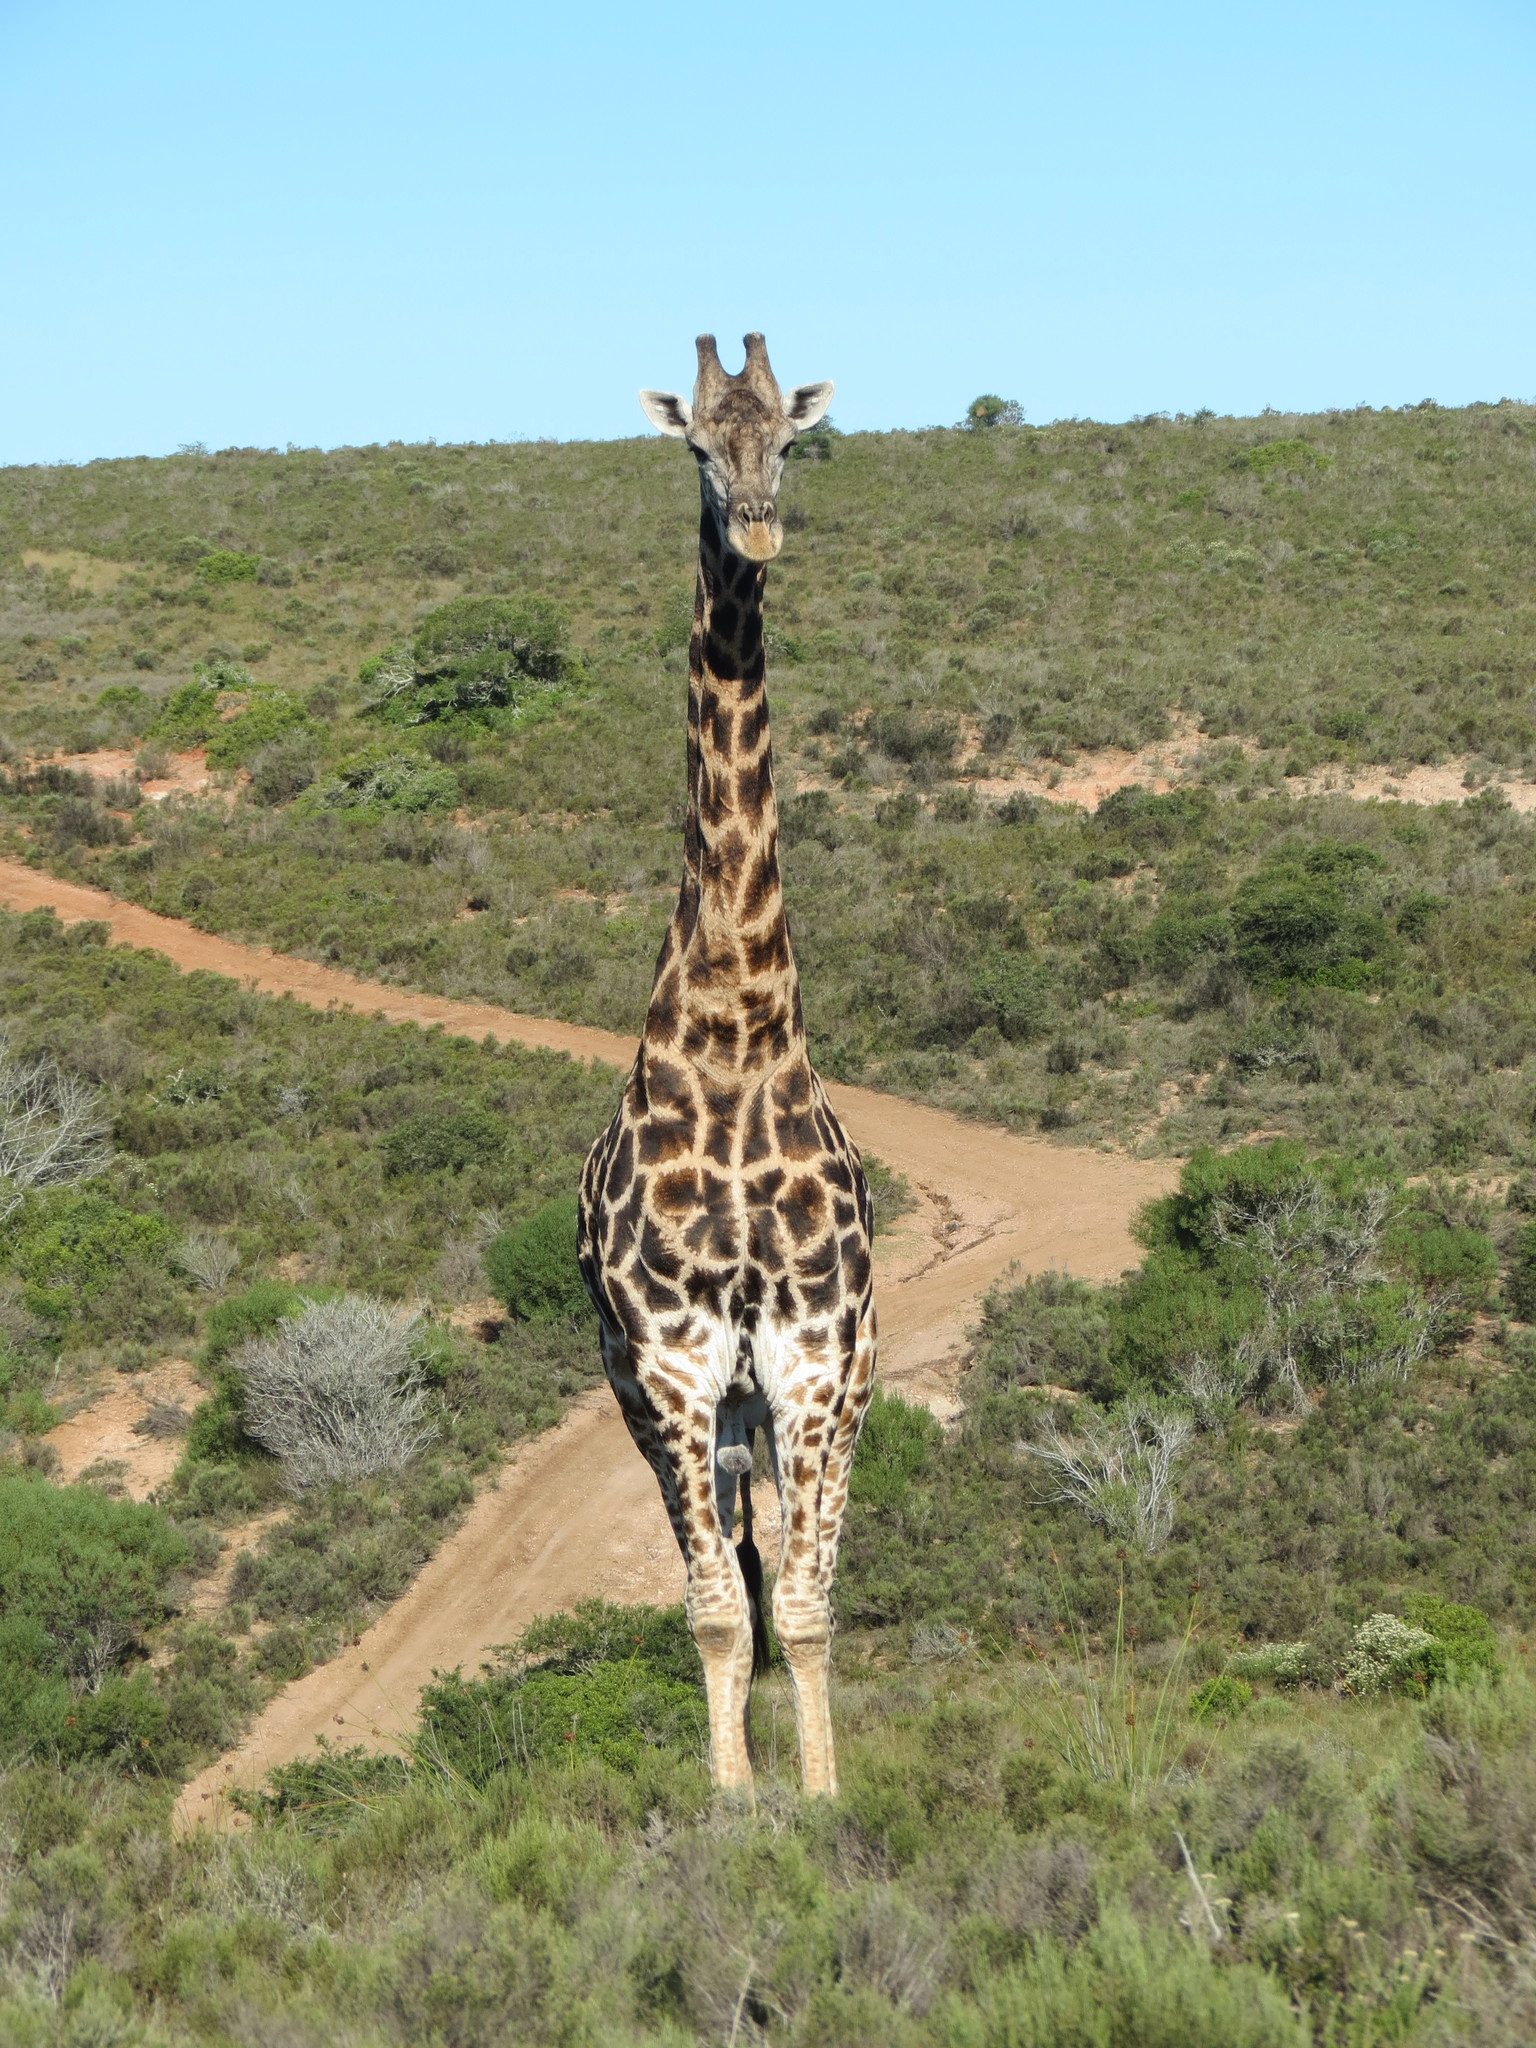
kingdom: Animalia
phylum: Chordata
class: Mammalia
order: Artiodactyla
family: Giraffidae
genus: Giraffa
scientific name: Giraffa giraffa
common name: Southern giraffe
